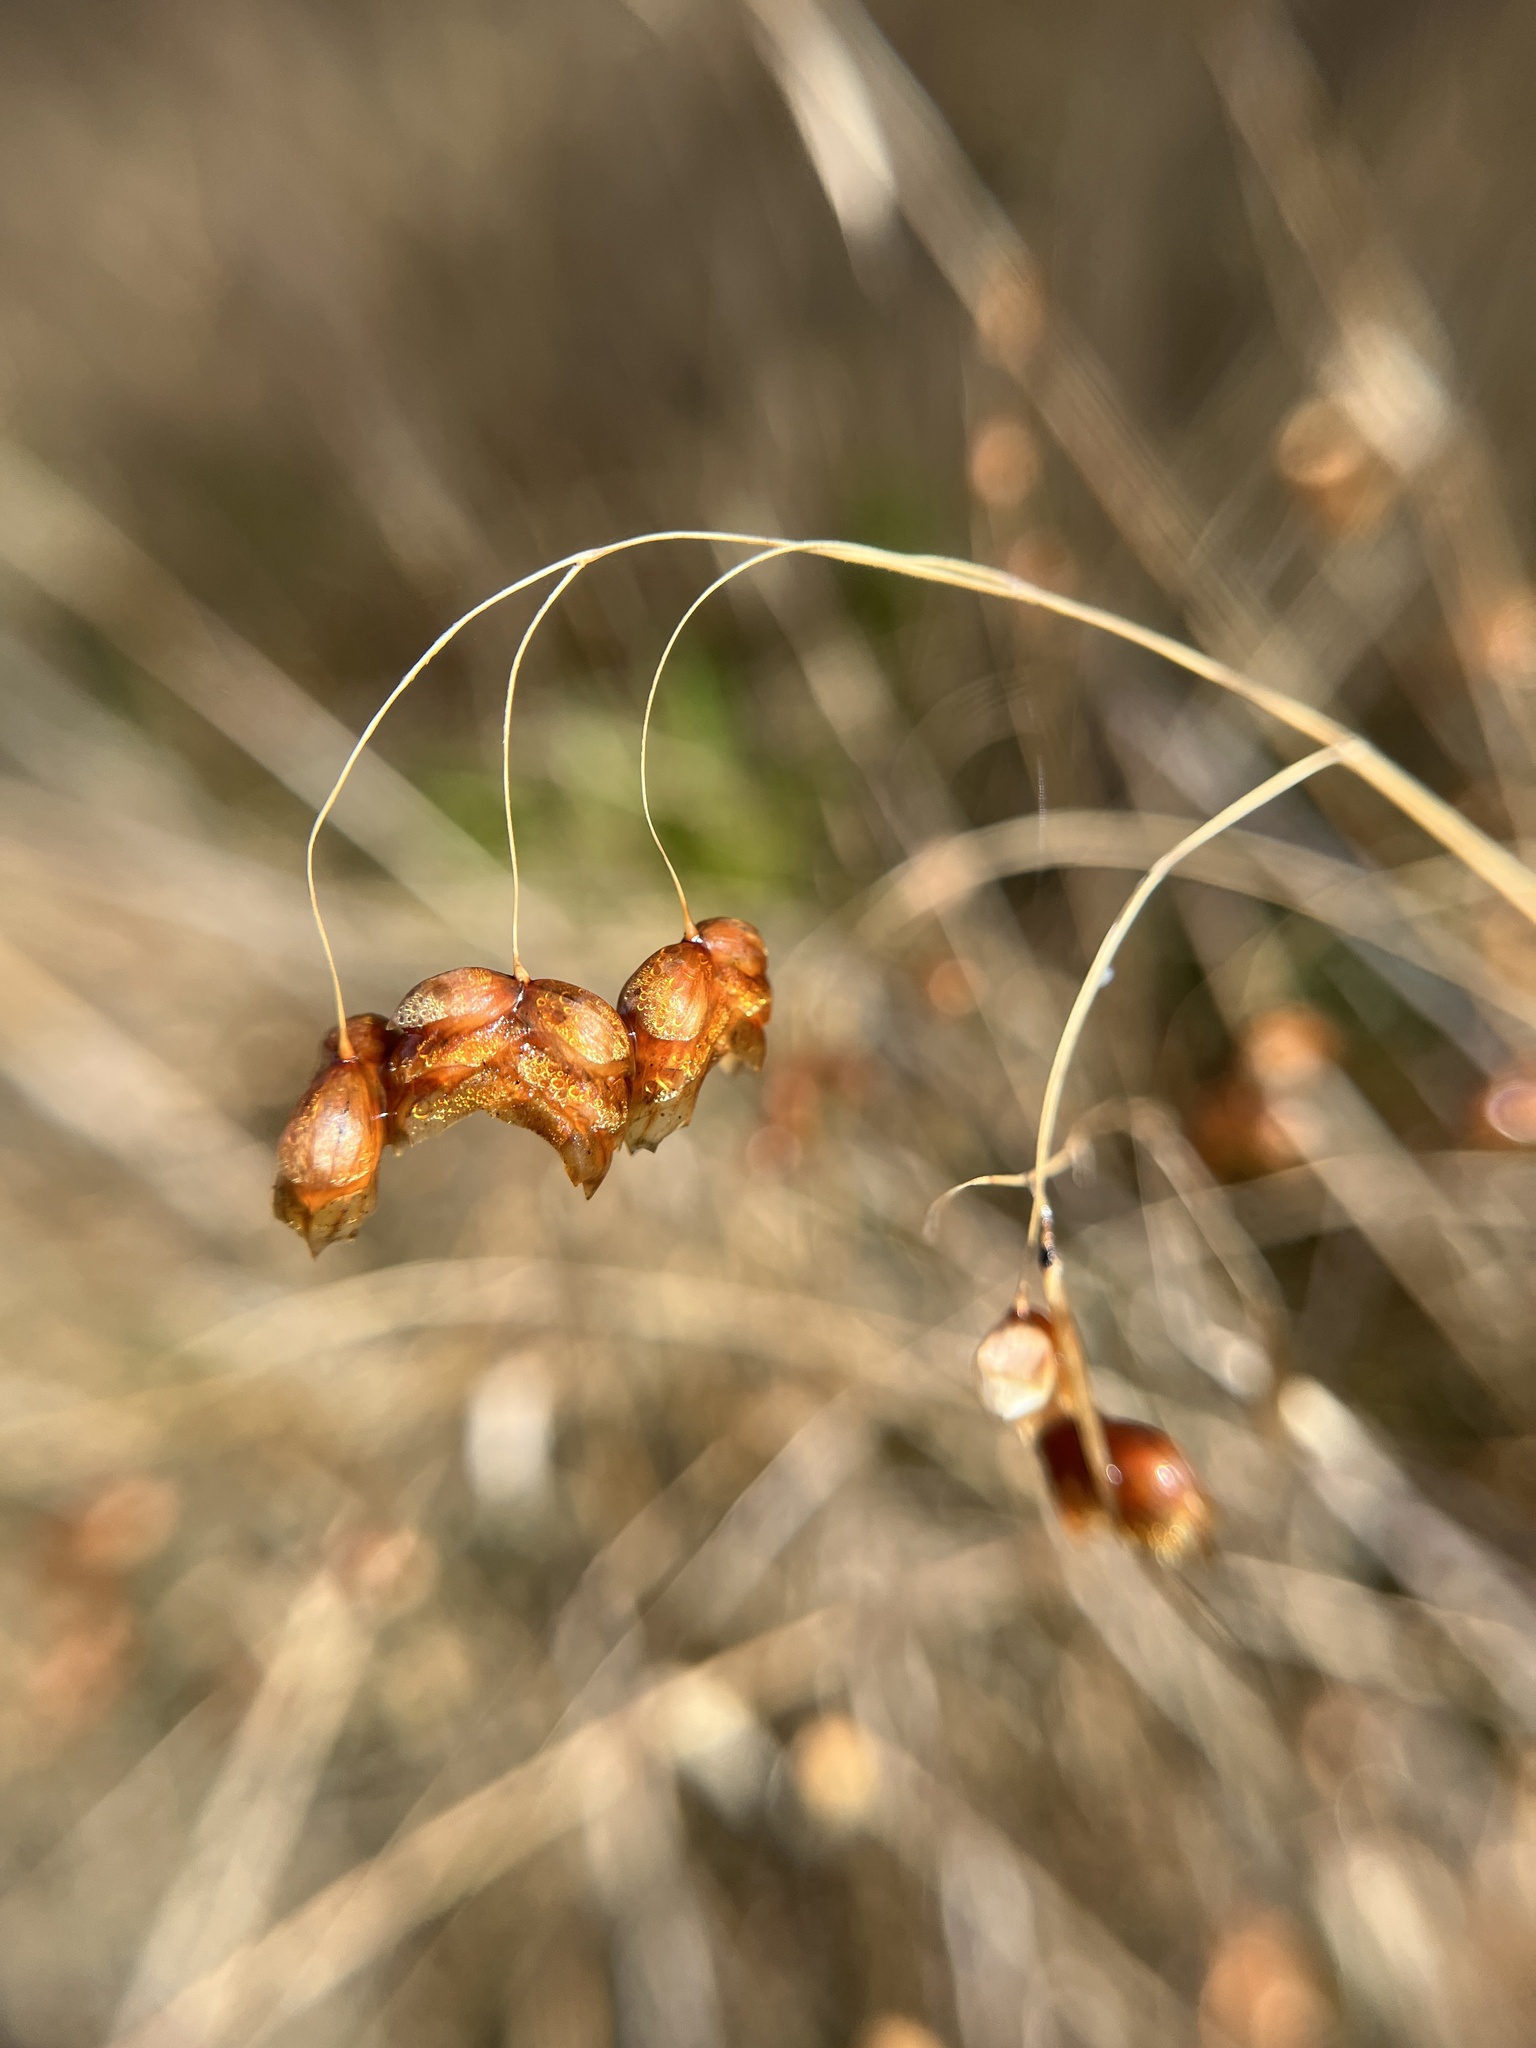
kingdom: Plantae
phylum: Tracheophyta
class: Liliopsida
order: Poales
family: Poaceae
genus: Briza
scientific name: Briza maxima
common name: Big quakinggrass
